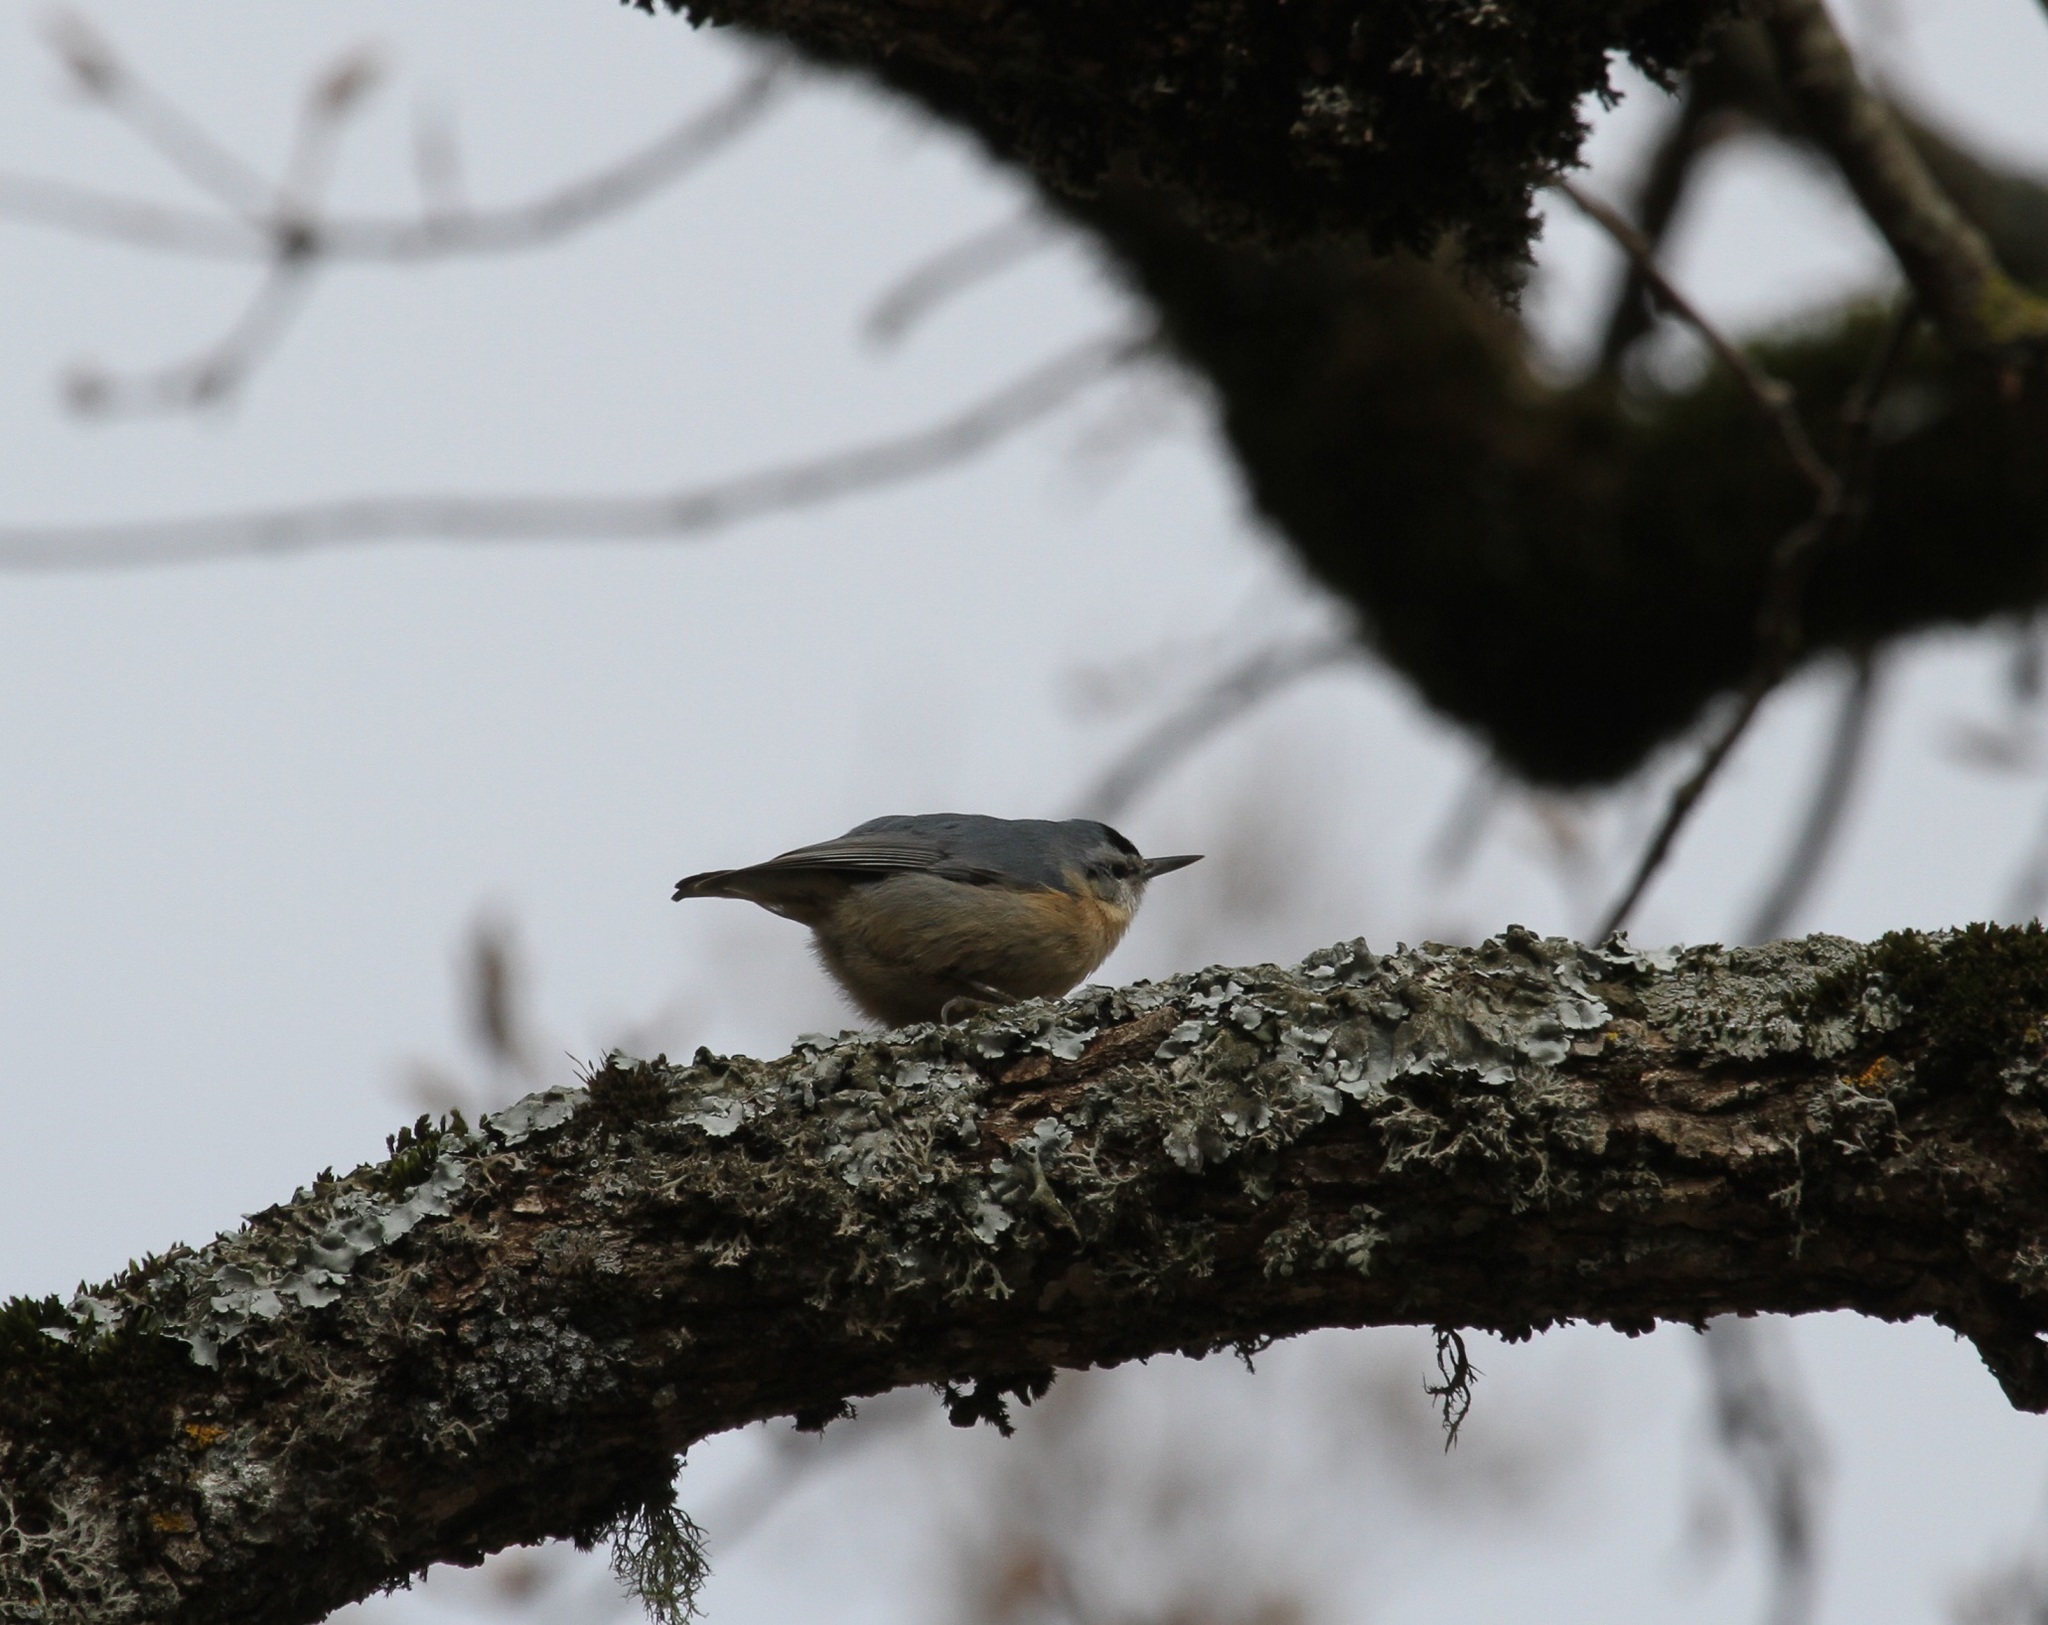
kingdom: Animalia
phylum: Chordata
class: Aves
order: Passeriformes
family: Sittidae
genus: Sitta
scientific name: Sitta ledanti
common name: Algerian nuthatch
